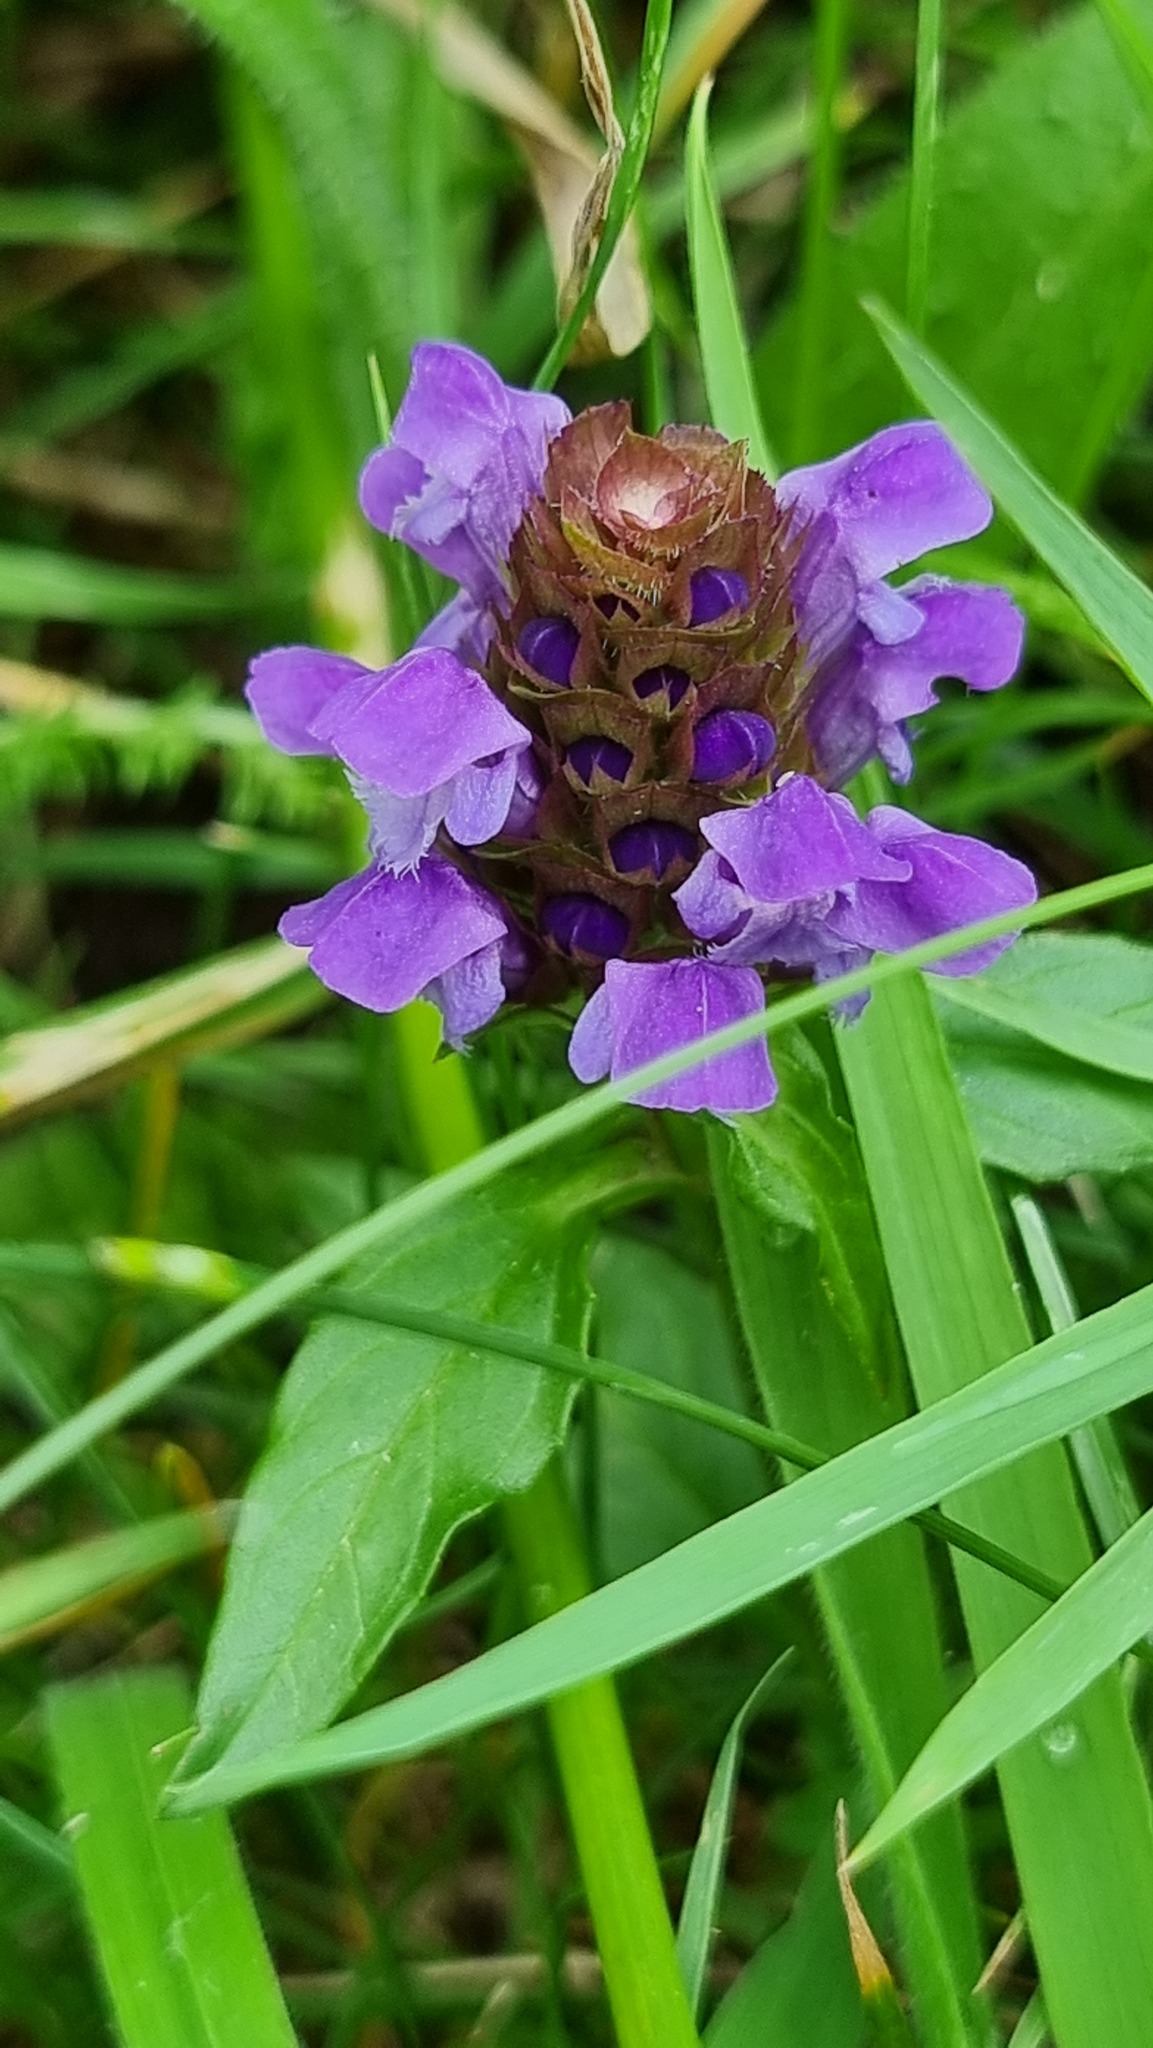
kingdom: Plantae
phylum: Tracheophyta
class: Magnoliopsida
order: Lamiales
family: Lamiaceae
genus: Prunella
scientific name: Prunella vulgaris
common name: Heal-all
